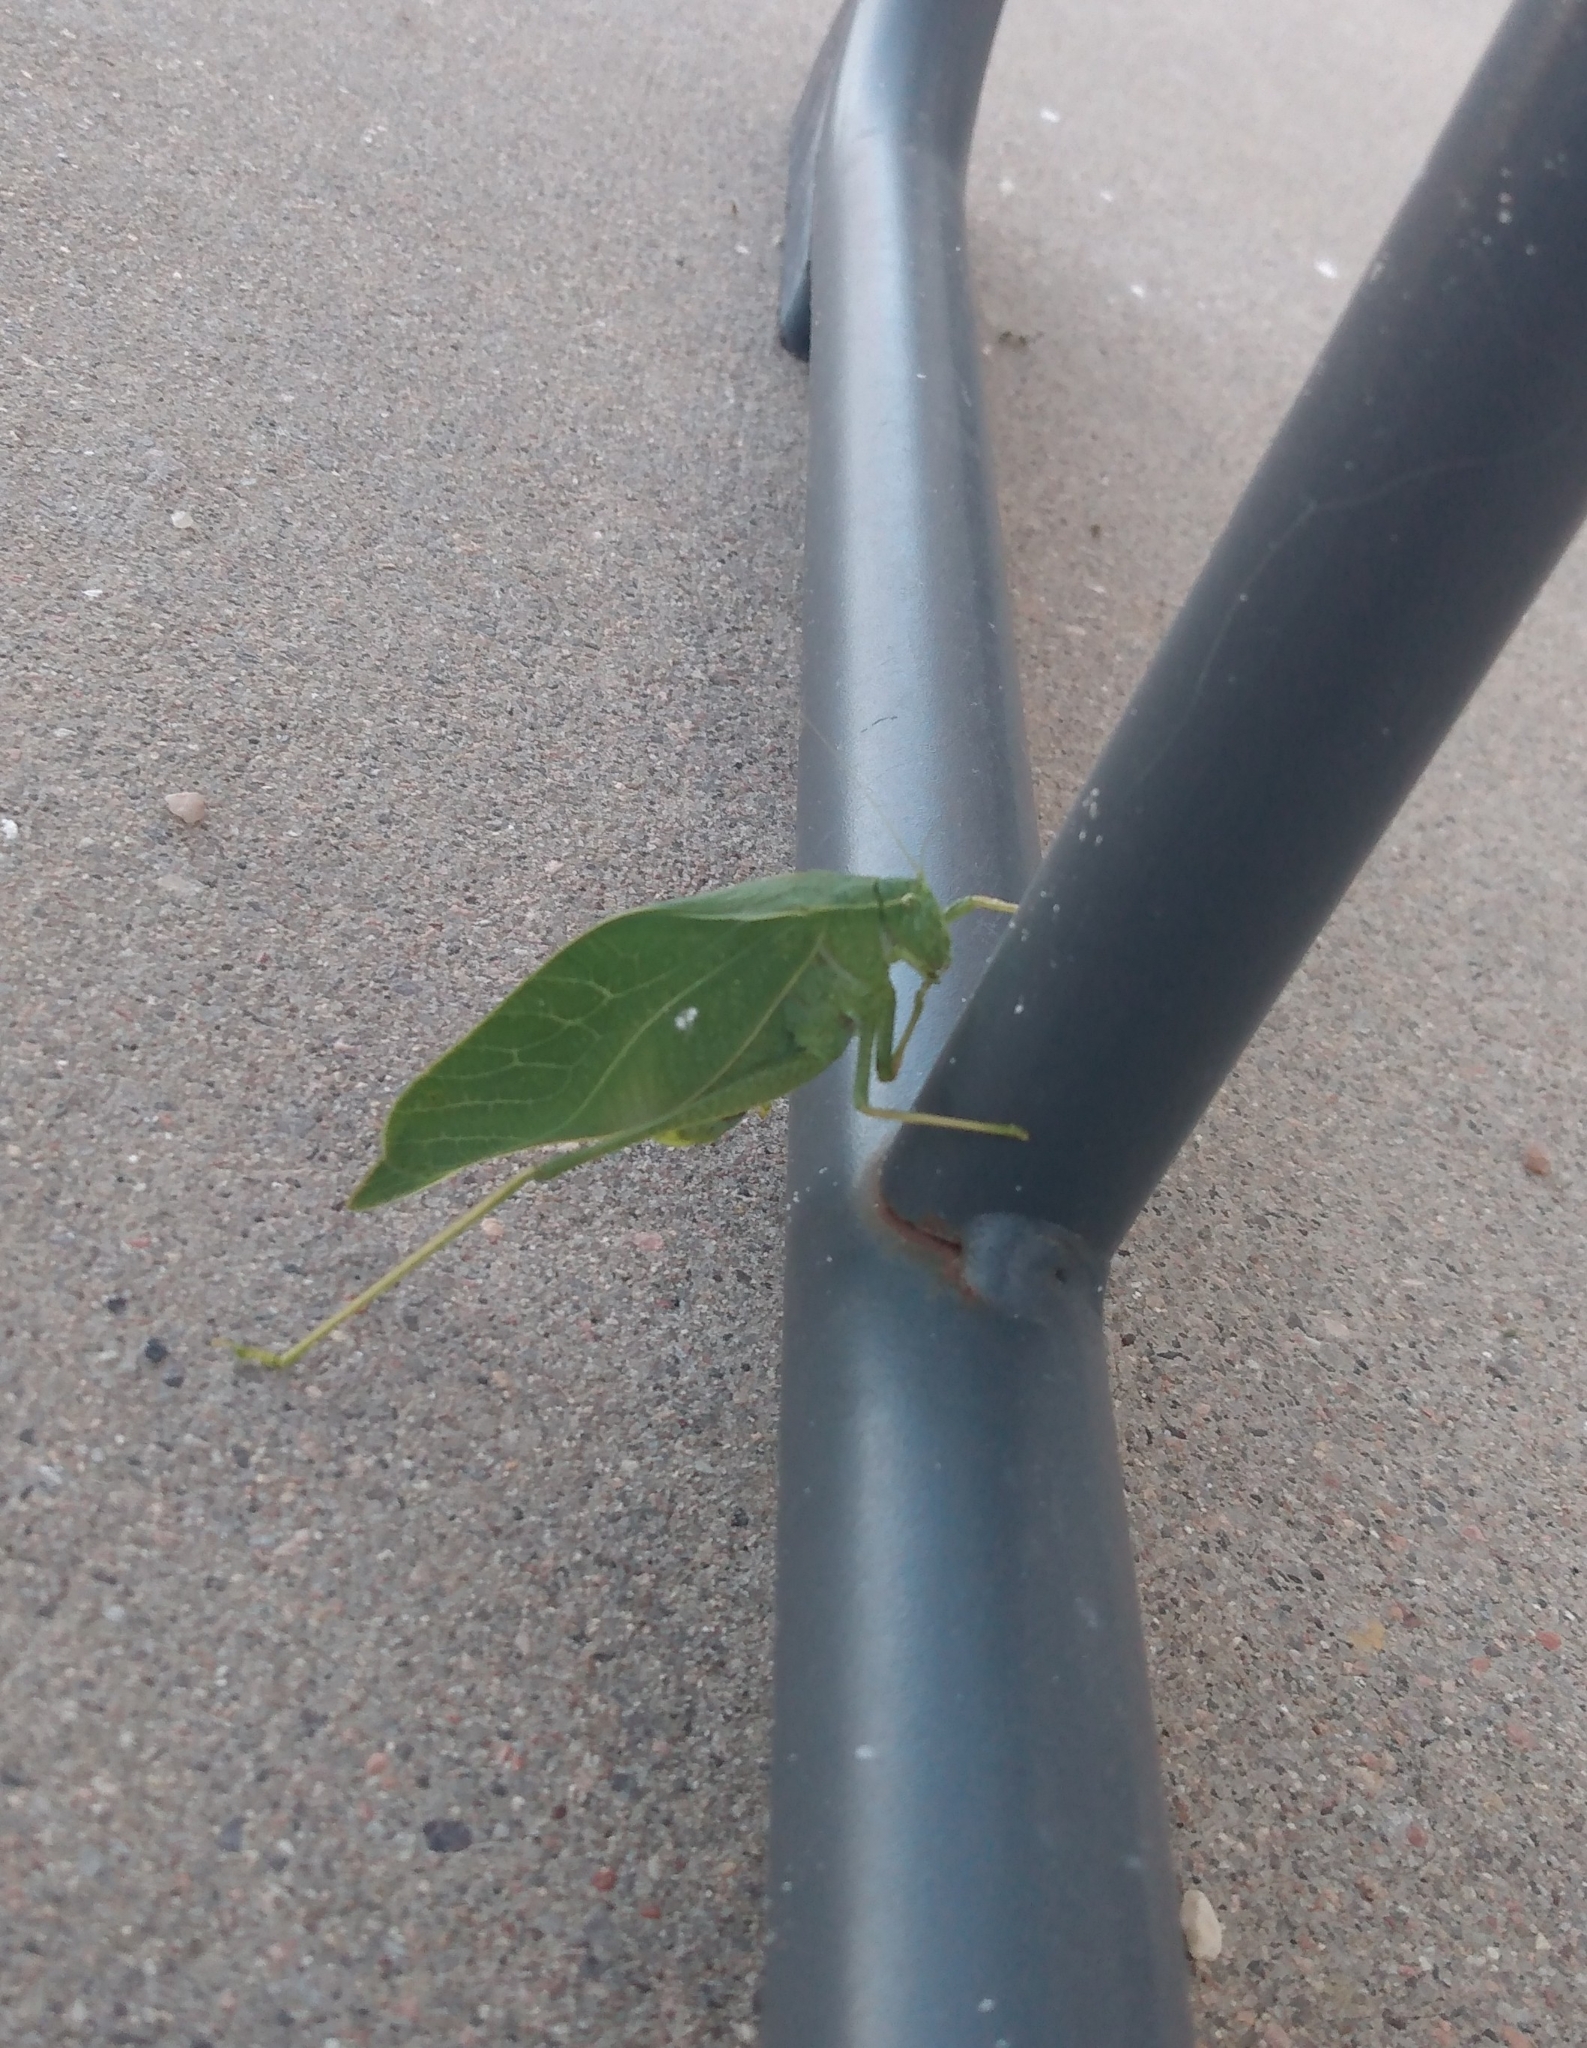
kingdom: Animalia
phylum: Arthropoda
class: Insecta
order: Orthoptera
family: Tettigoniidae
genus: Microcentrum
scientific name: Microcentrum rhombifolium
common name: Broad-winged katydid
